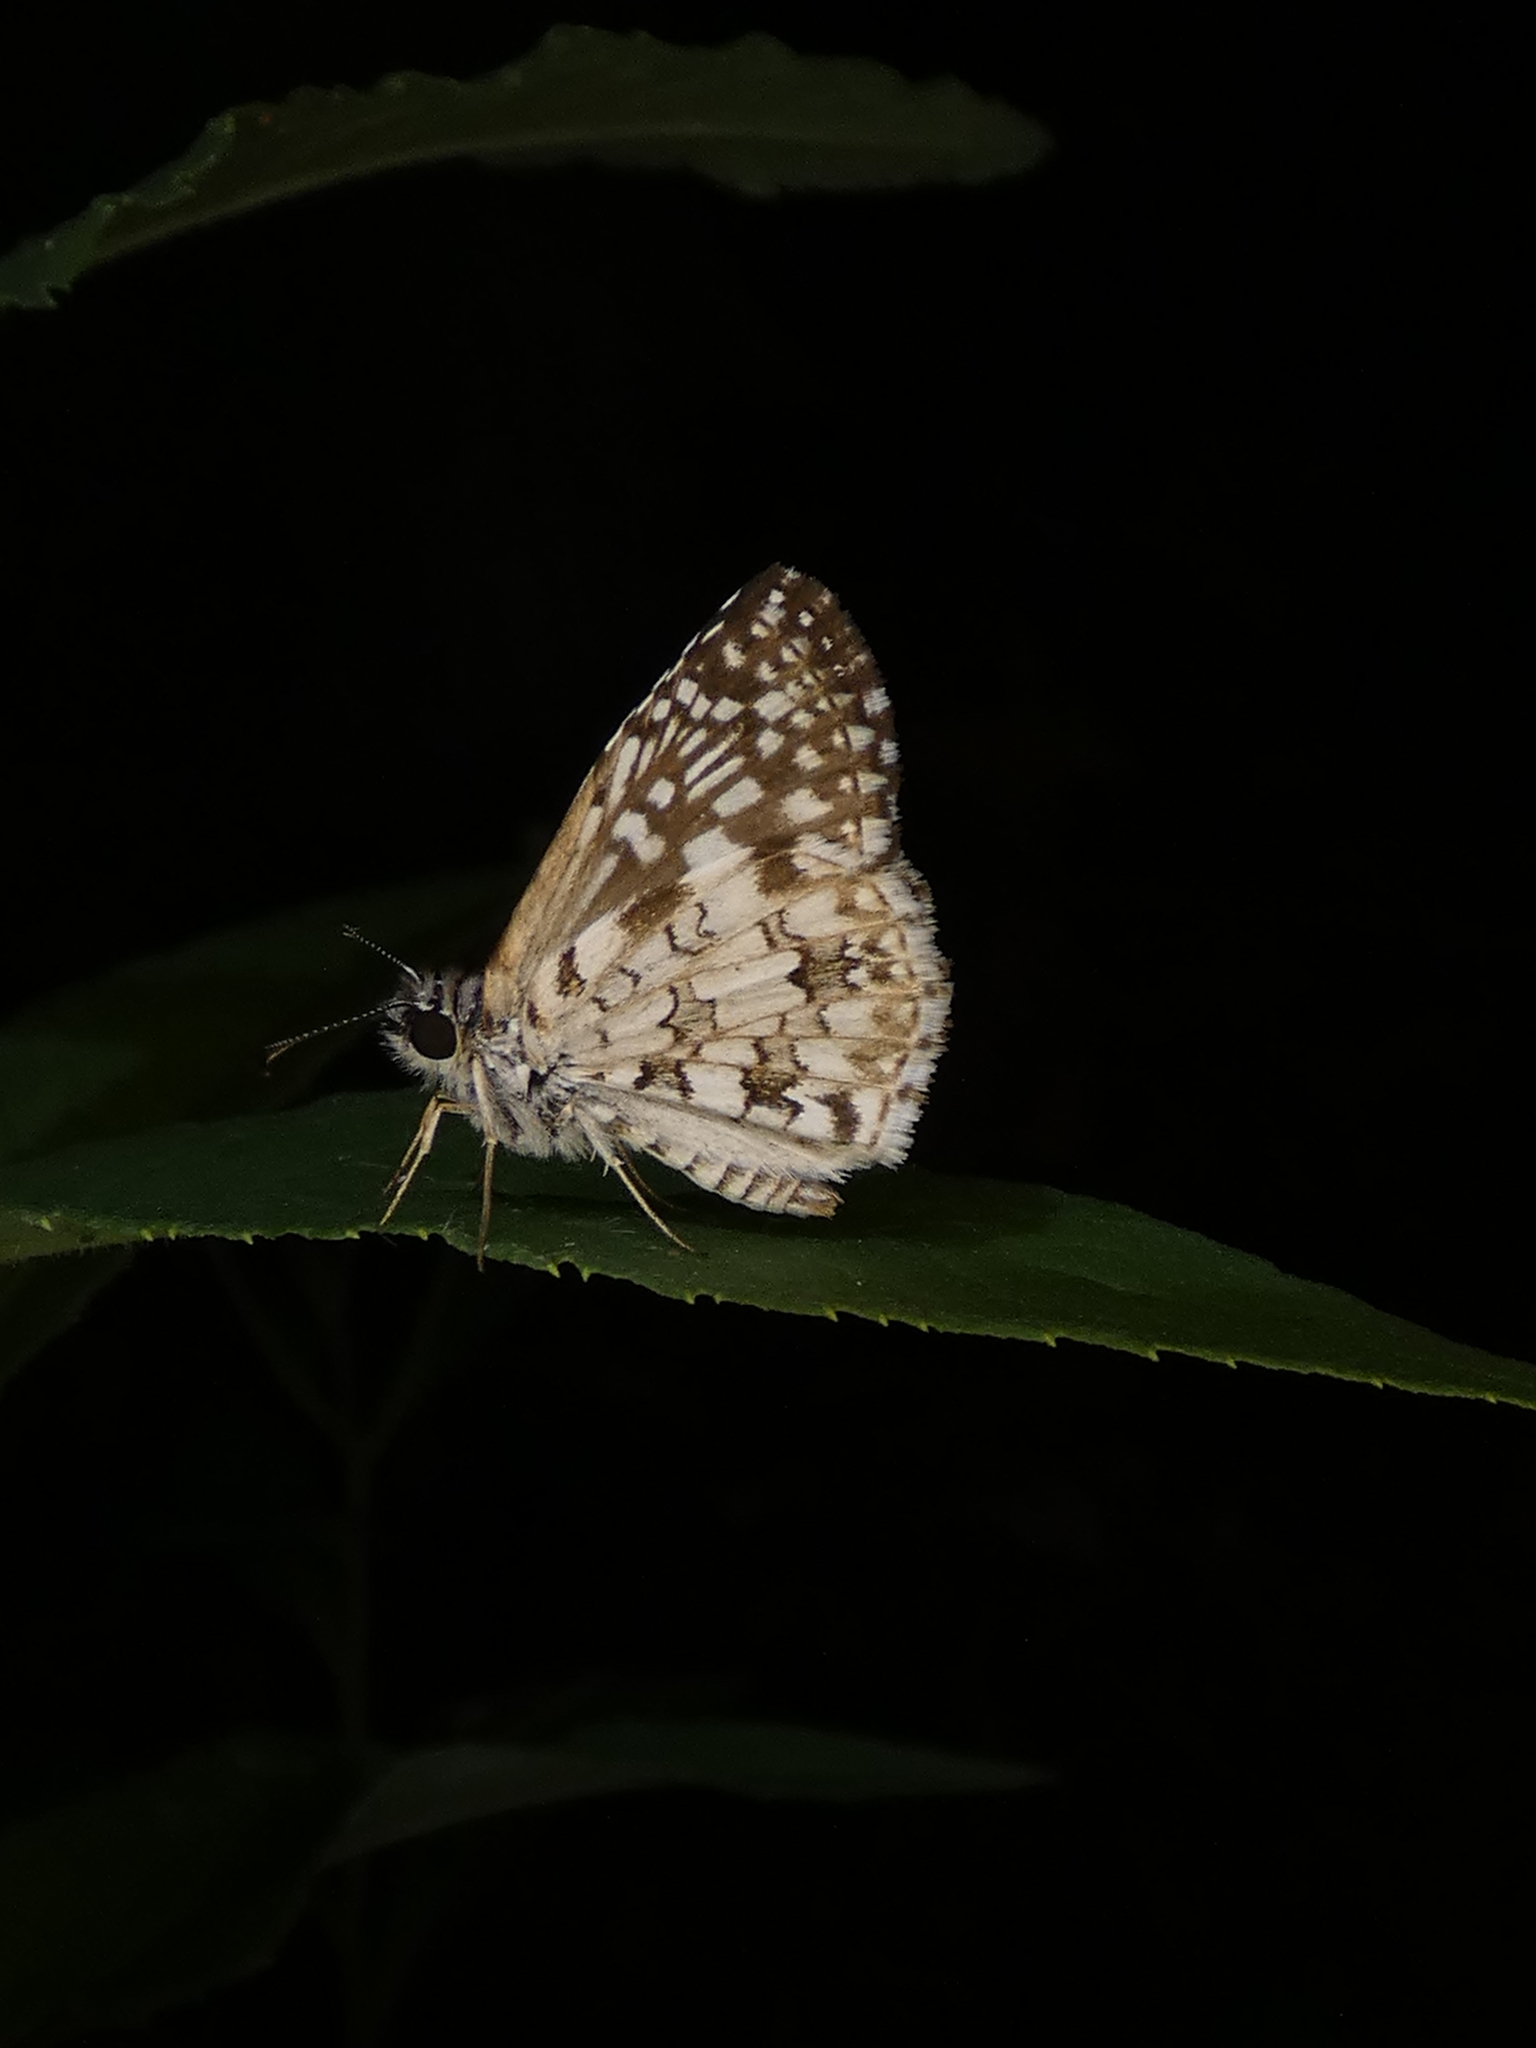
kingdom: Animalia
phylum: Arthropoda
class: Insecta
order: Lepidoptera
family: Hesperiidae
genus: Pyrgus
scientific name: Pyrgus oileus
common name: Tropical checkered-skipper
